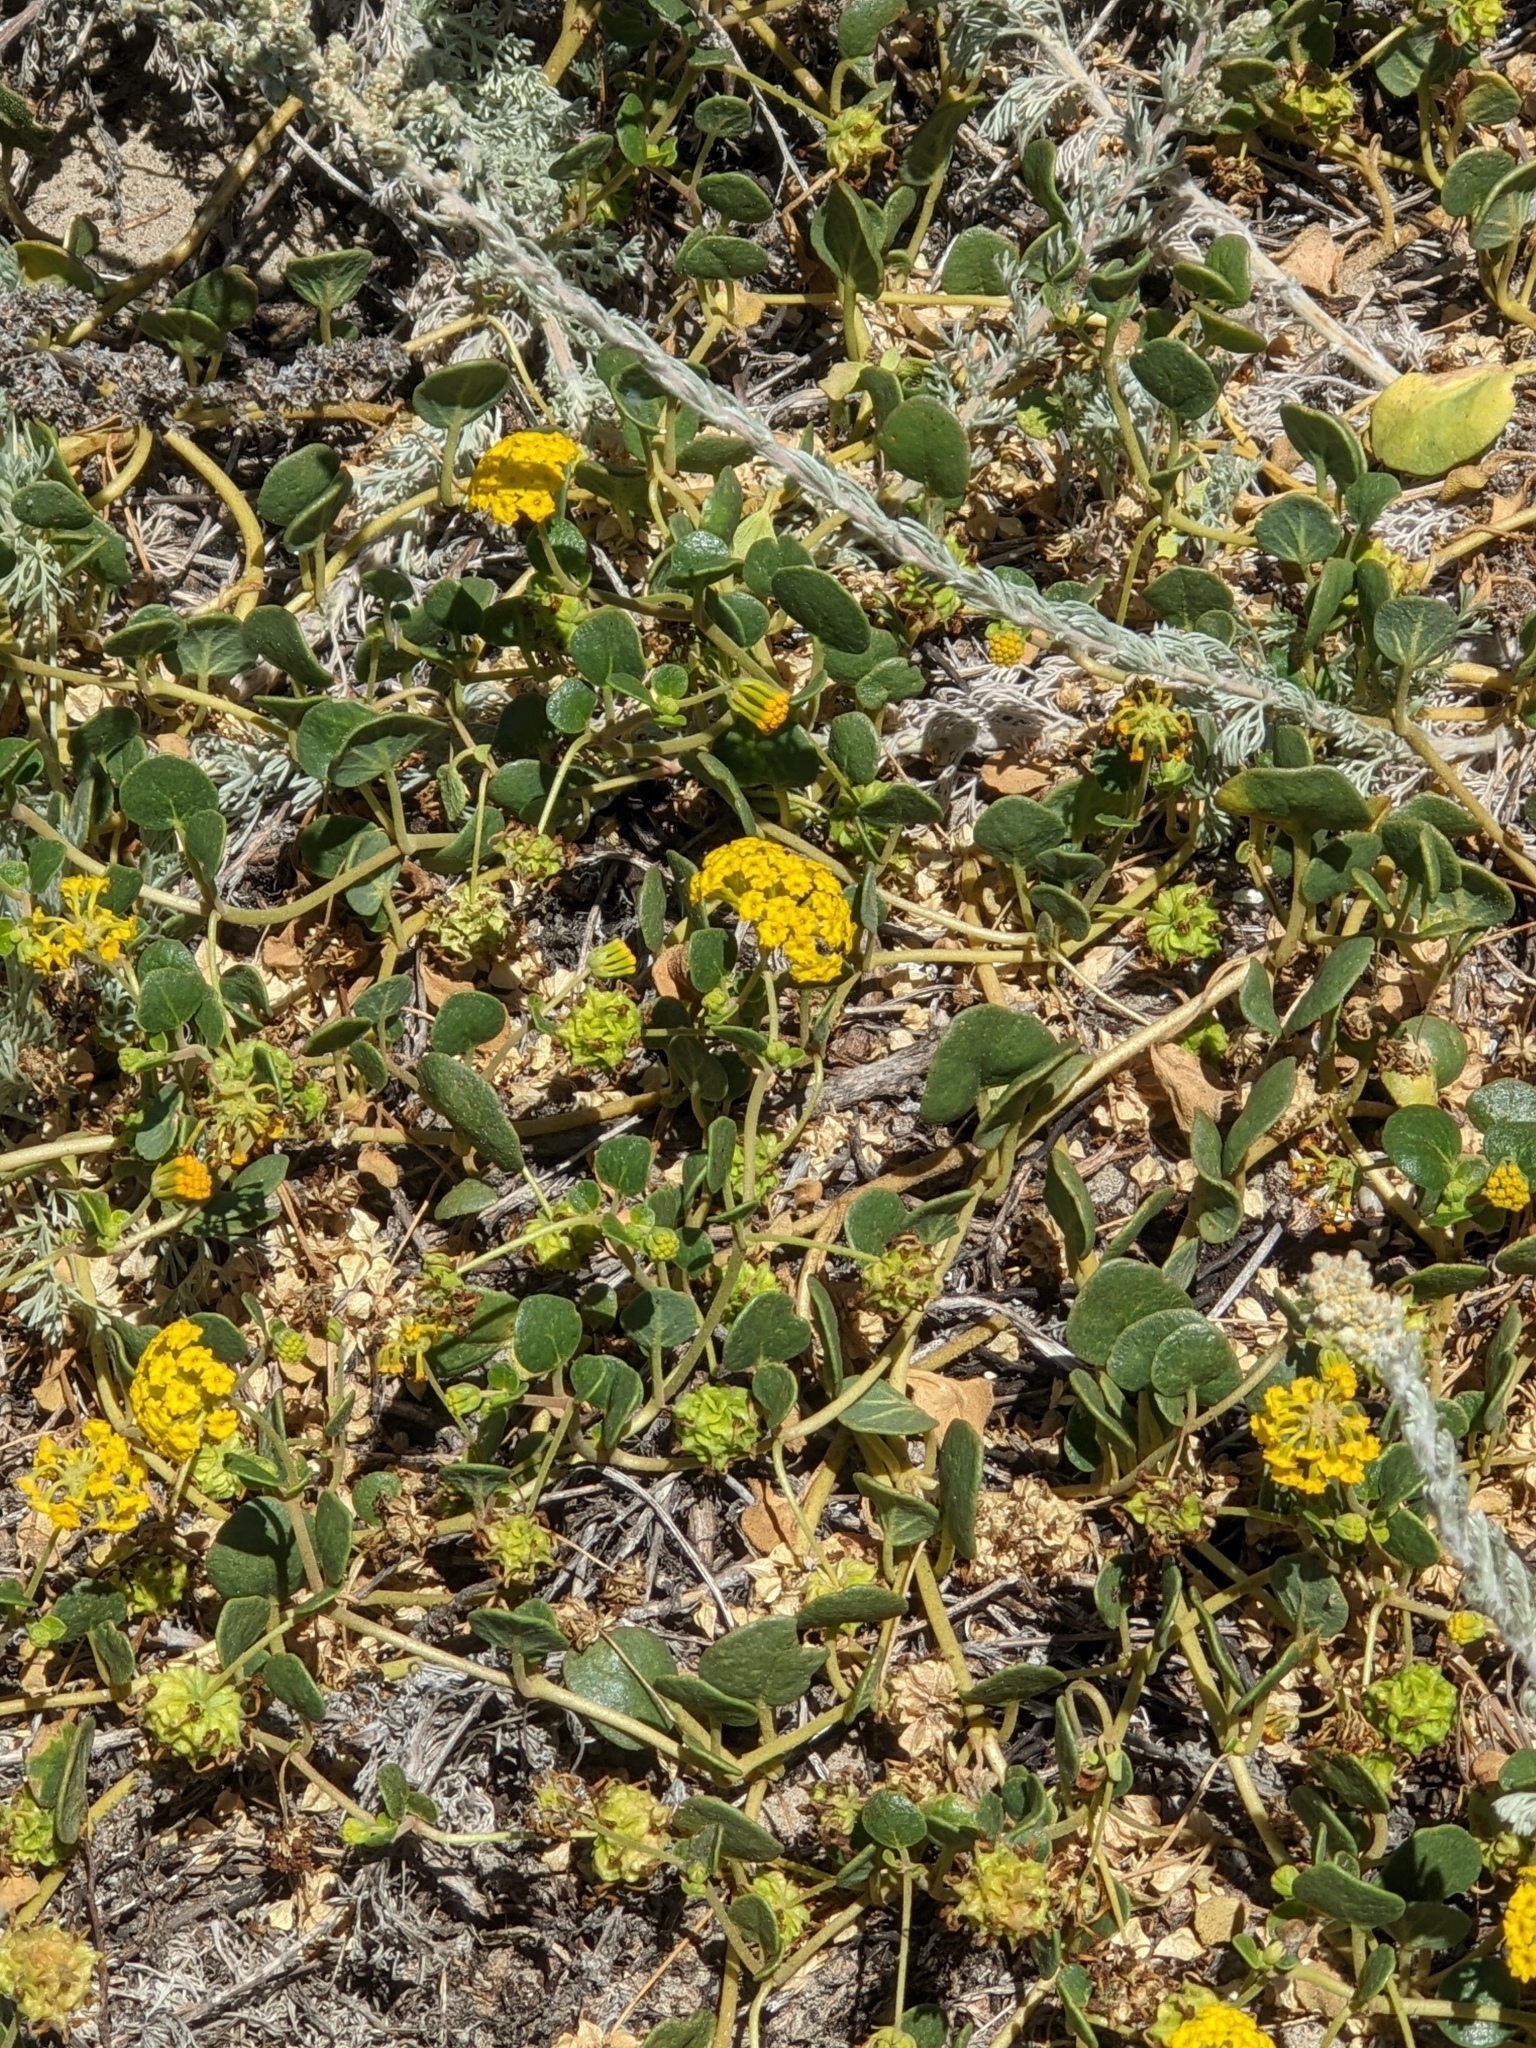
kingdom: Plantae
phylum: Tracheophyta
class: Magnoliopsida
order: Caryophyllales
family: Nyctaginaceae
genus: Abronia
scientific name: Abronia latifolia
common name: Yellow sand-verbena
